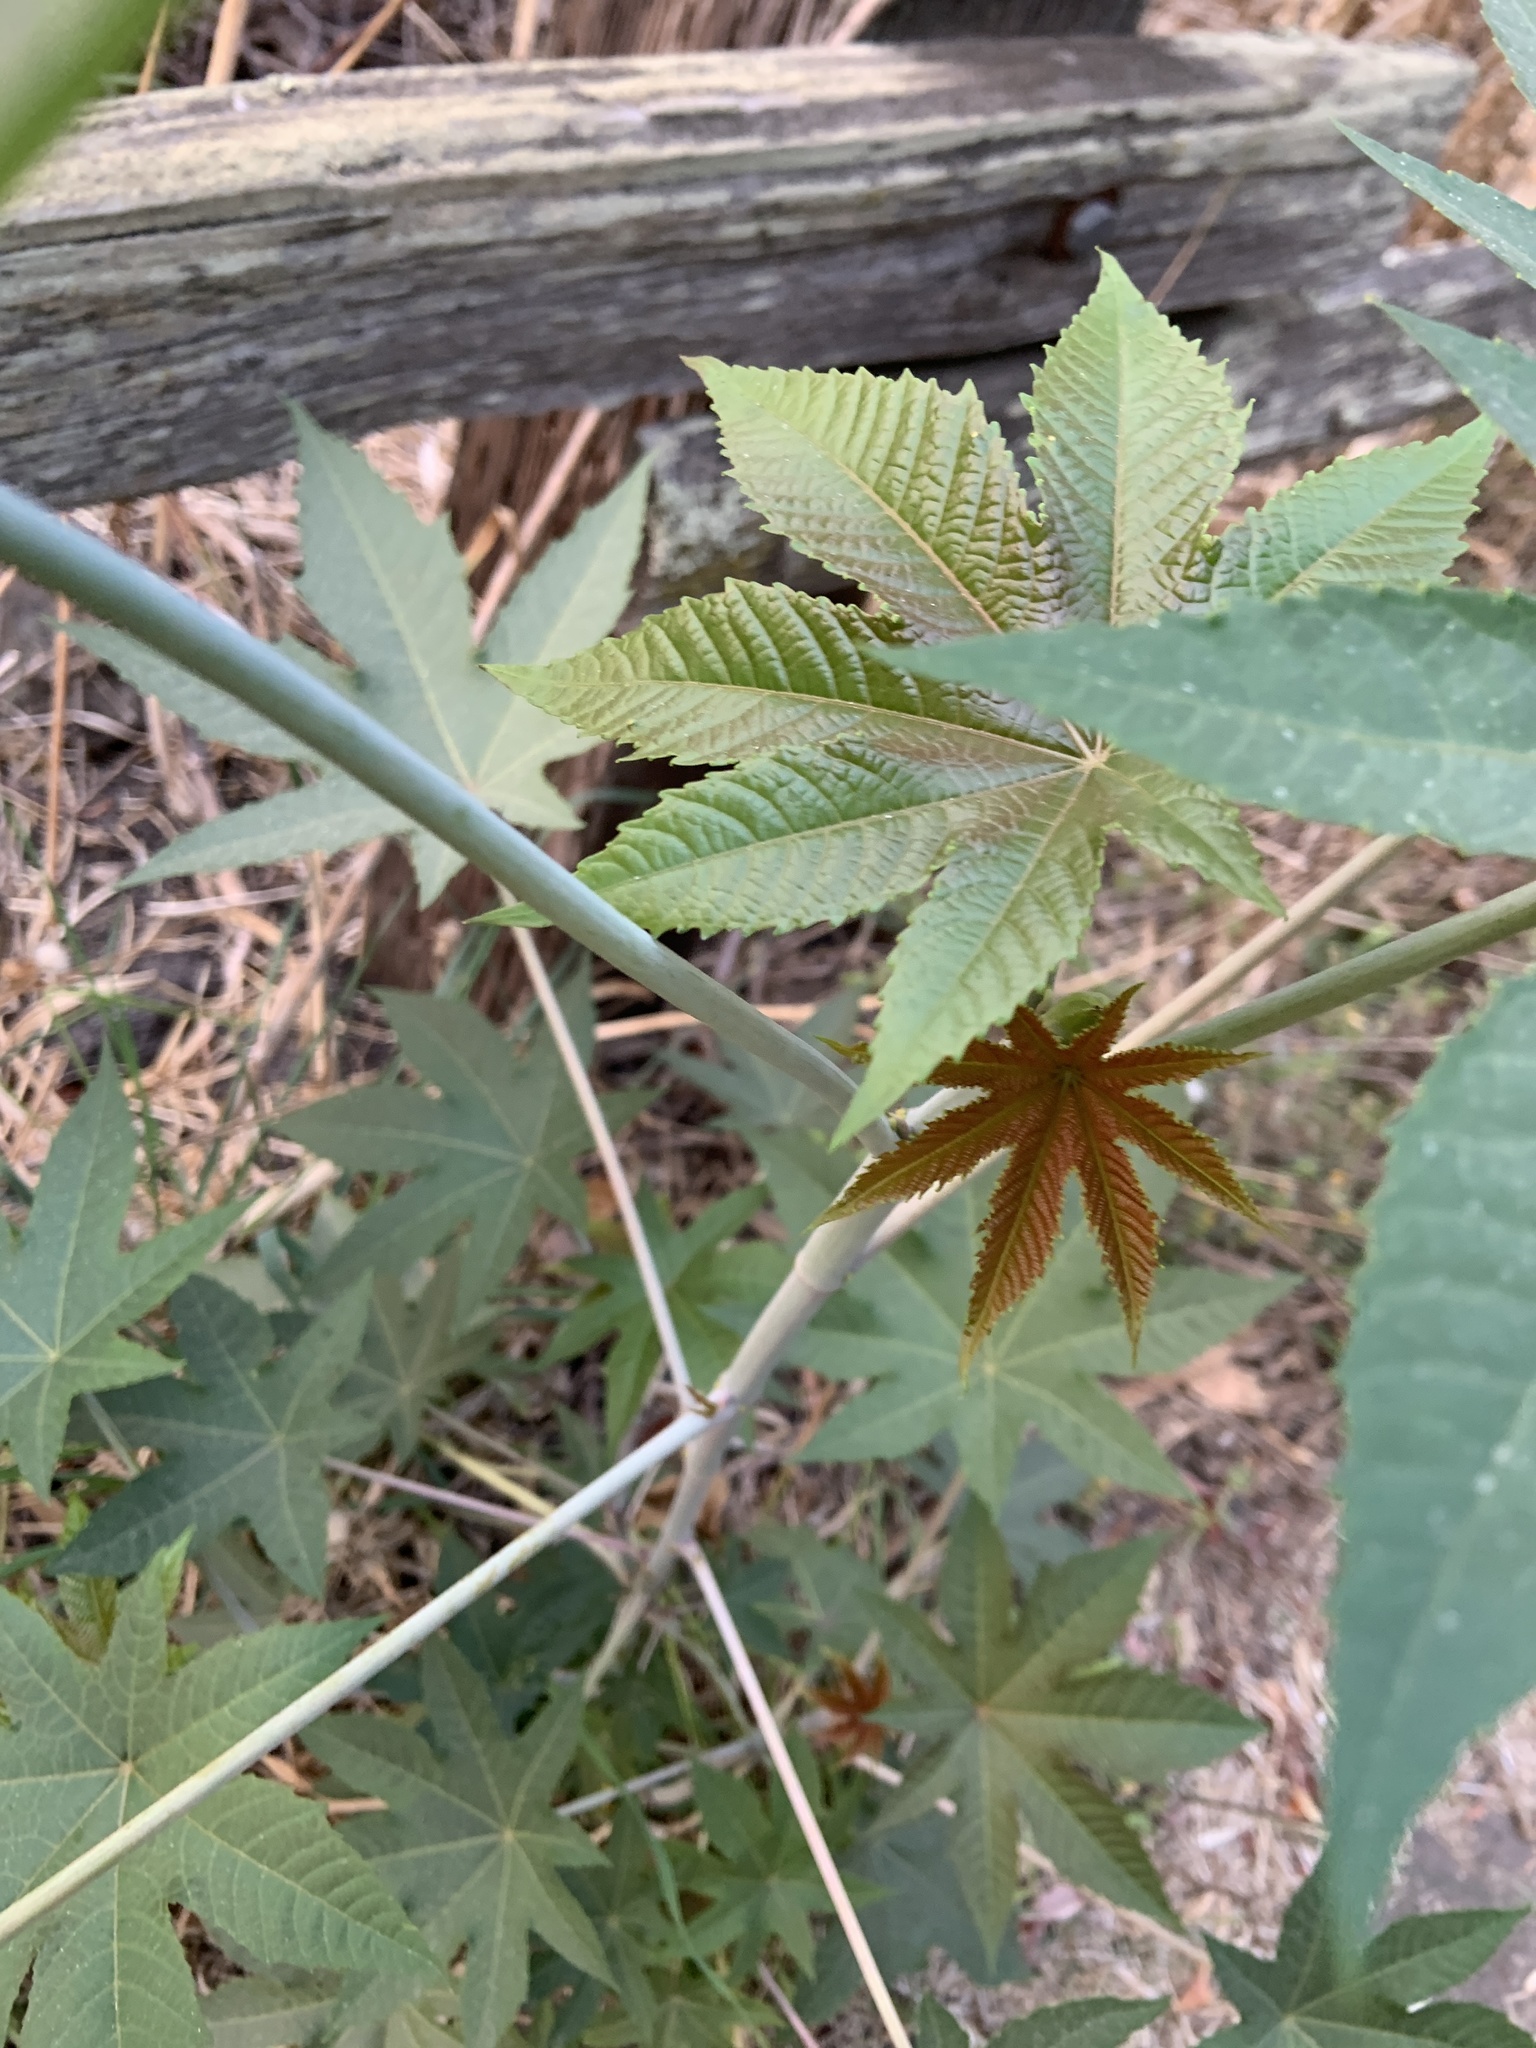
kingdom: Plantae
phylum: Tracheophyta
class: Magnoliopsida
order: Malpighiales
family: Euphorbiaceae
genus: Ricinus
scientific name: Ricinus communis
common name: Castor-oil-plant
